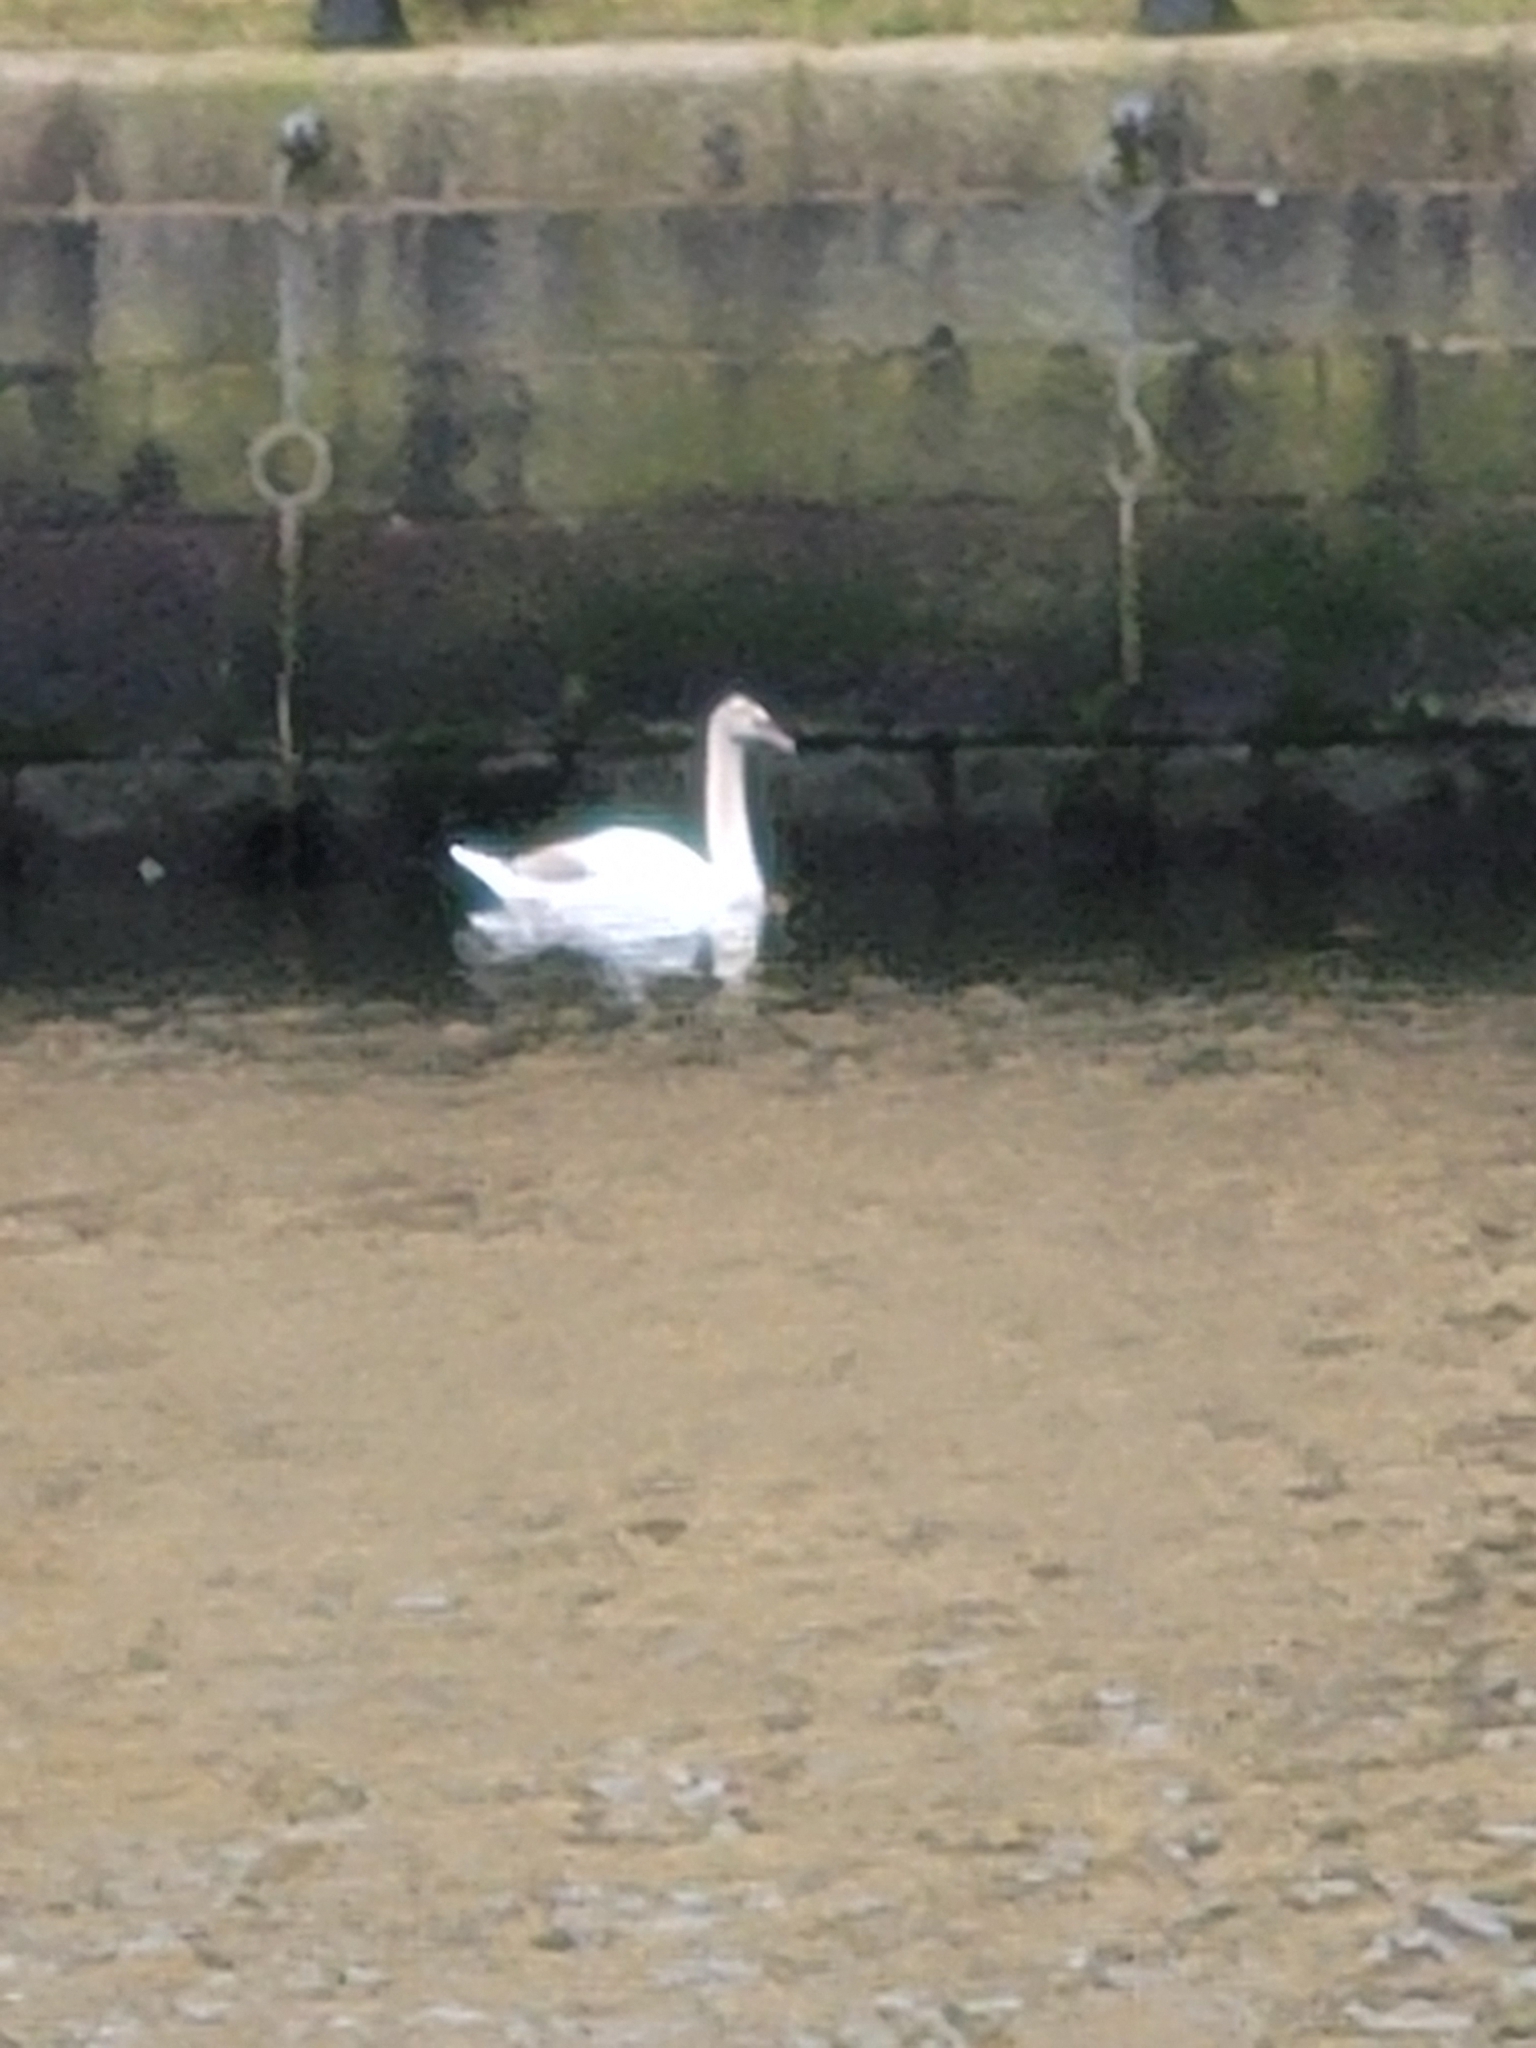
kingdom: Animalia
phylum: Chordata
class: Aves
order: Anseriformes
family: Anatidae
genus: Cygnus
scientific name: Cygnus olor
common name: Mute swan
